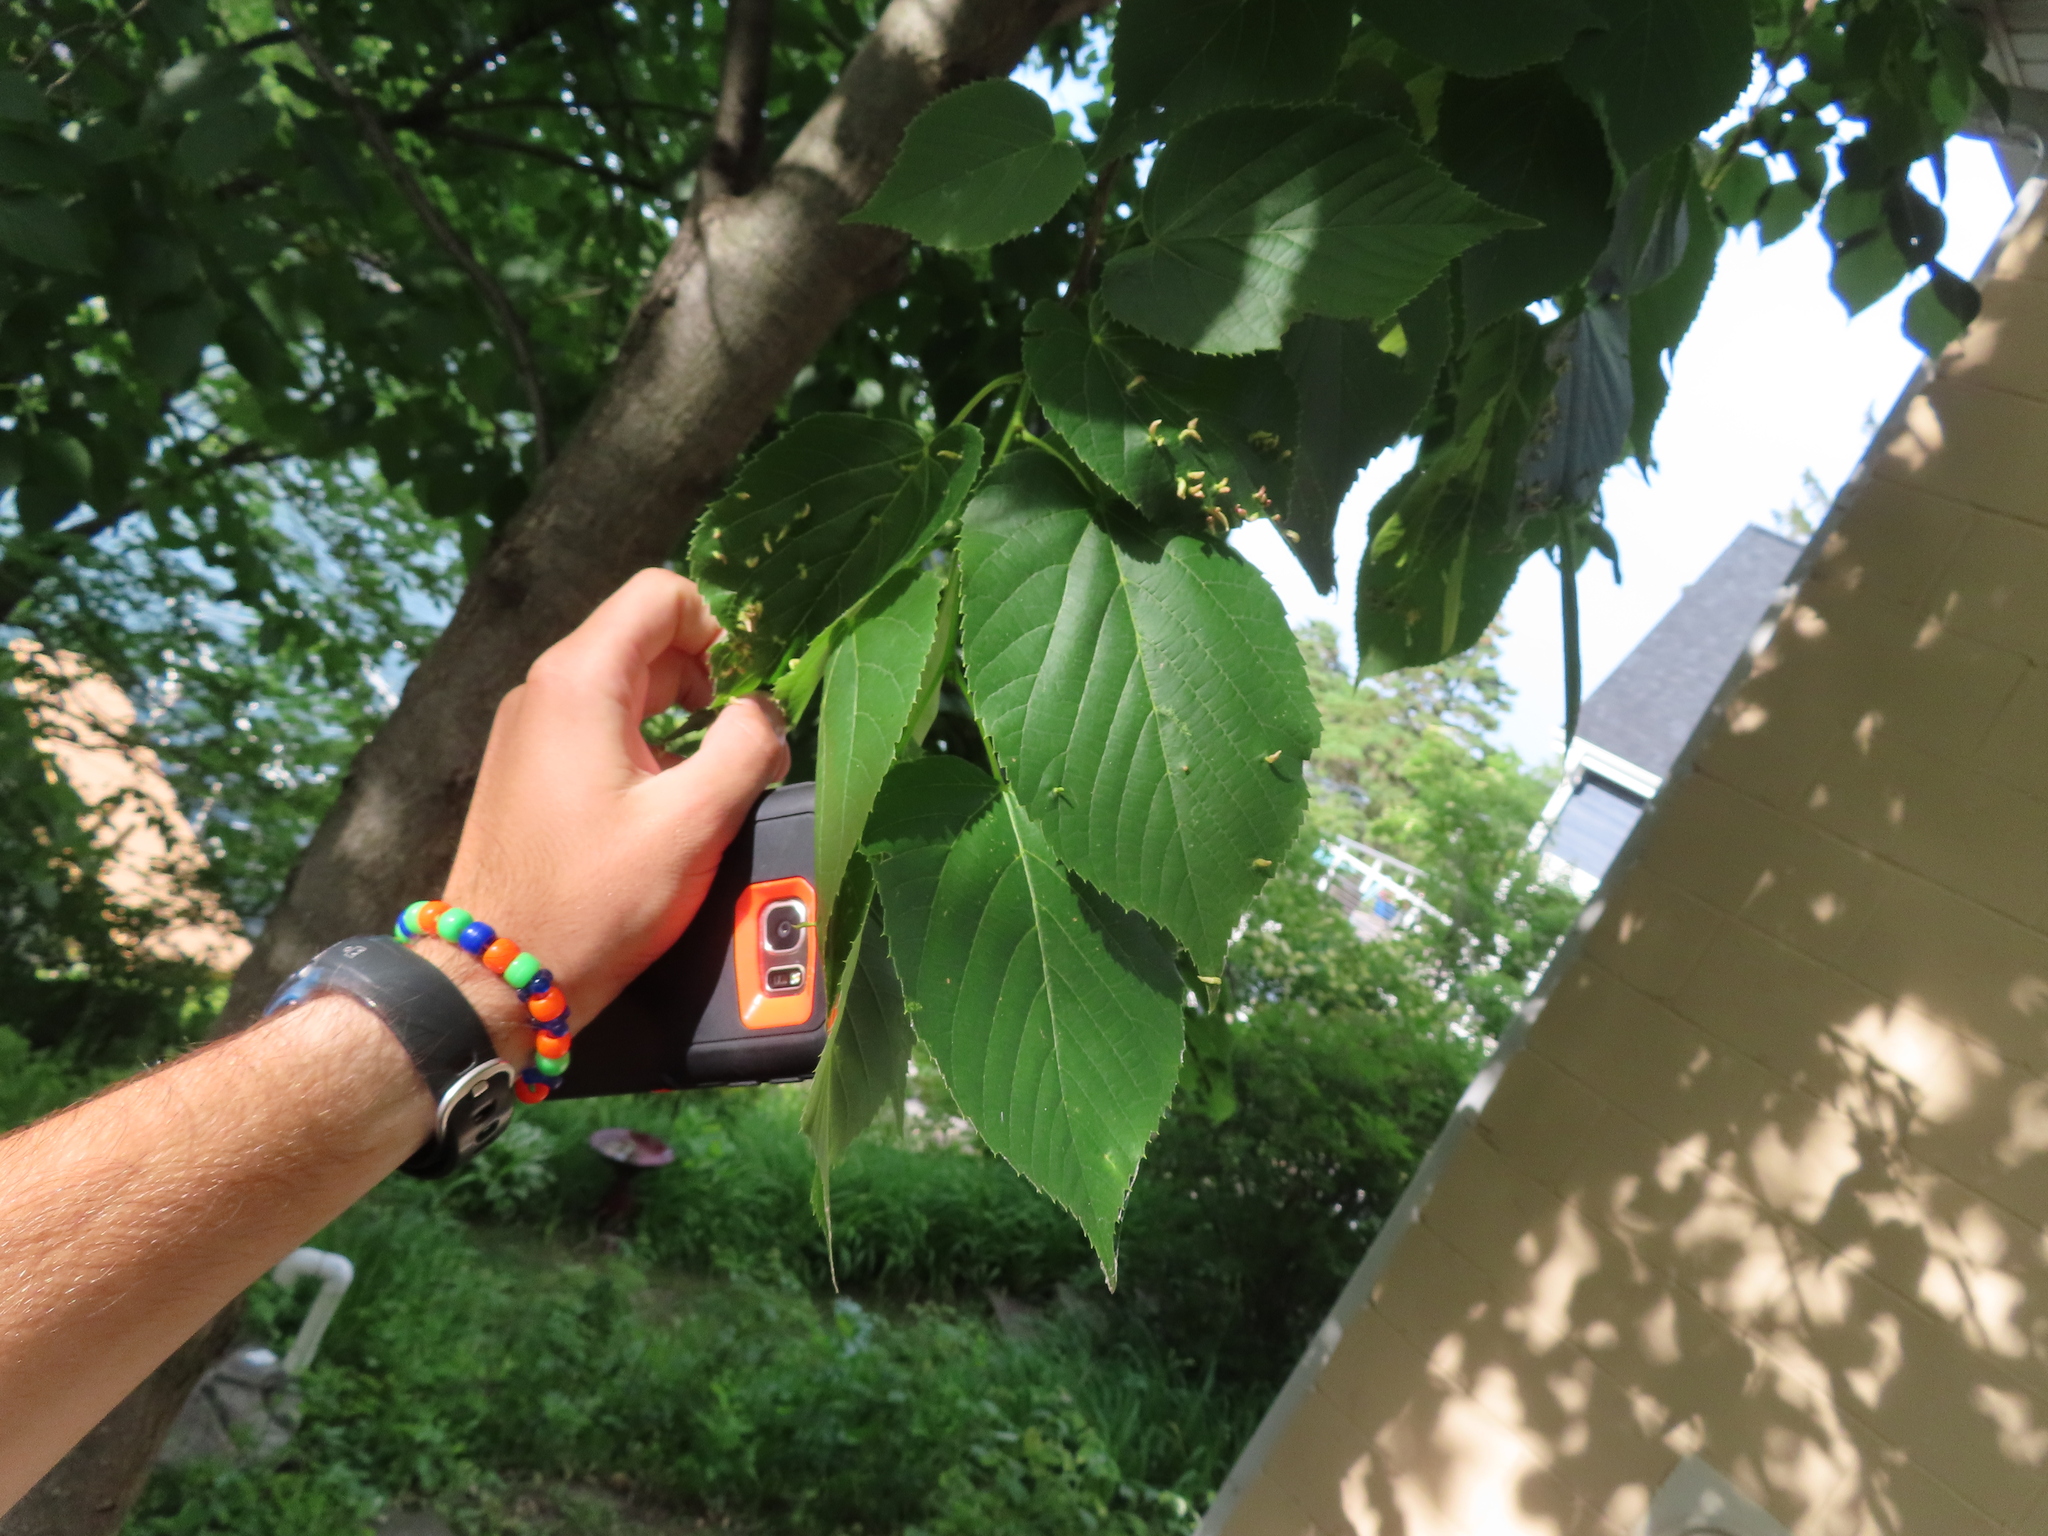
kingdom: Animalia
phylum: Arthropoda
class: Arachnida
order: Trombidiformes
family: Eriophyidae
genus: Eriophyes
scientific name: Eriophyes tiliae
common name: Red nail gall mite
